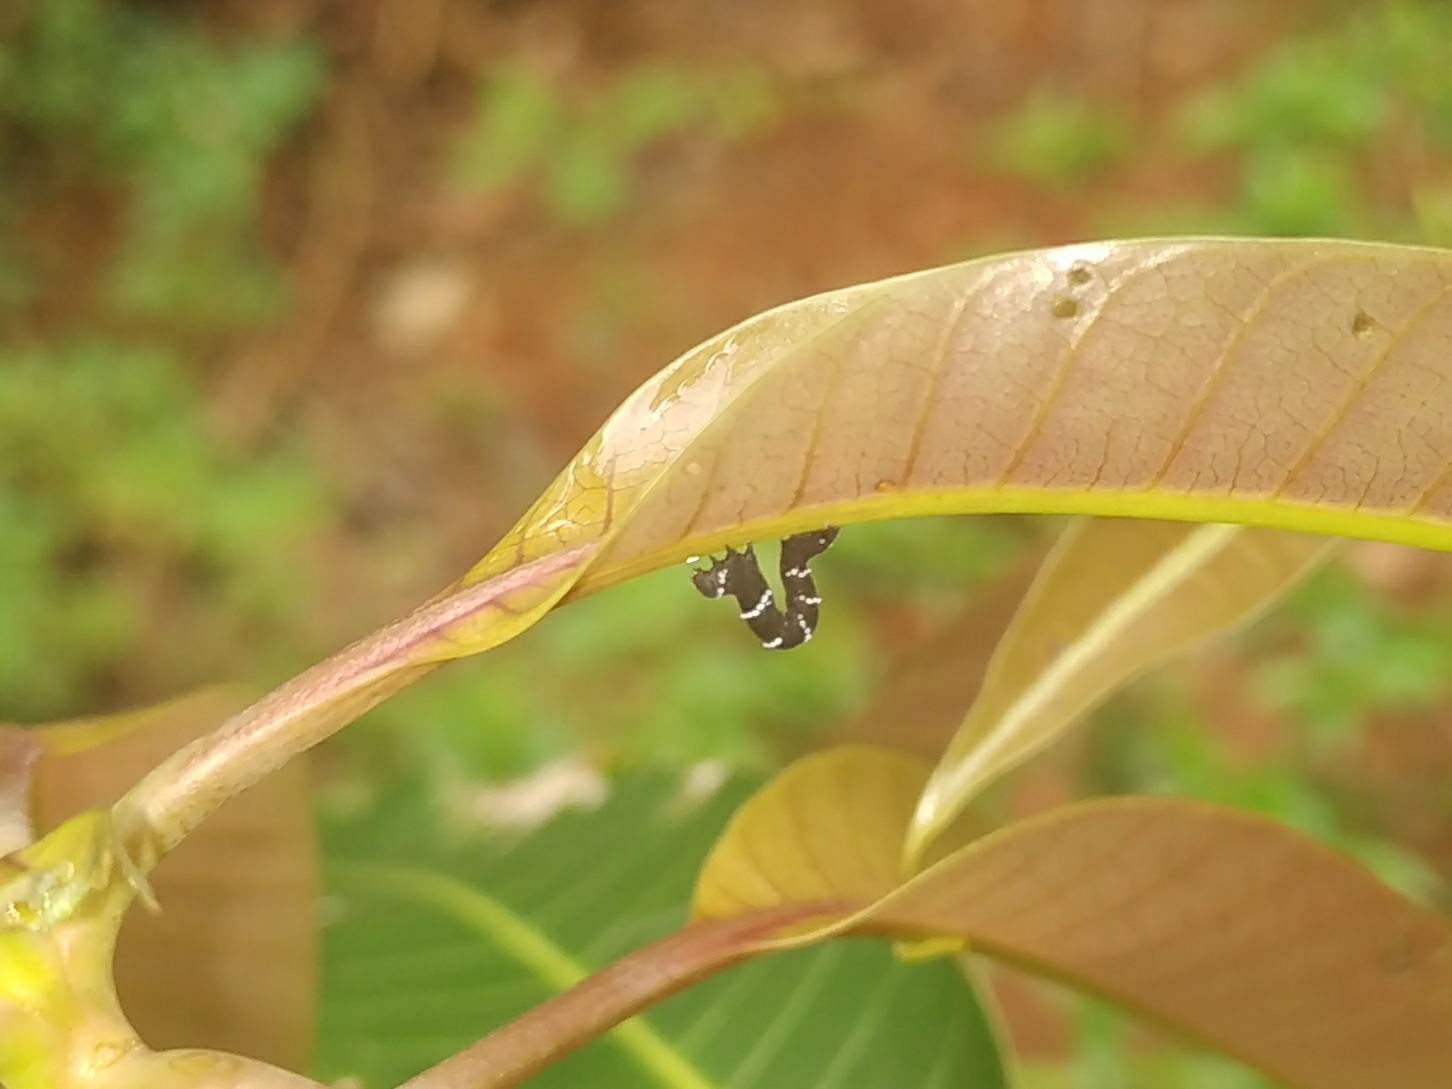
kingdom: Animalia
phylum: Arthropoda
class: Insecta
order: Lepidoptera
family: Geometridae
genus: Hyposidra
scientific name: Hyposidra talaca
